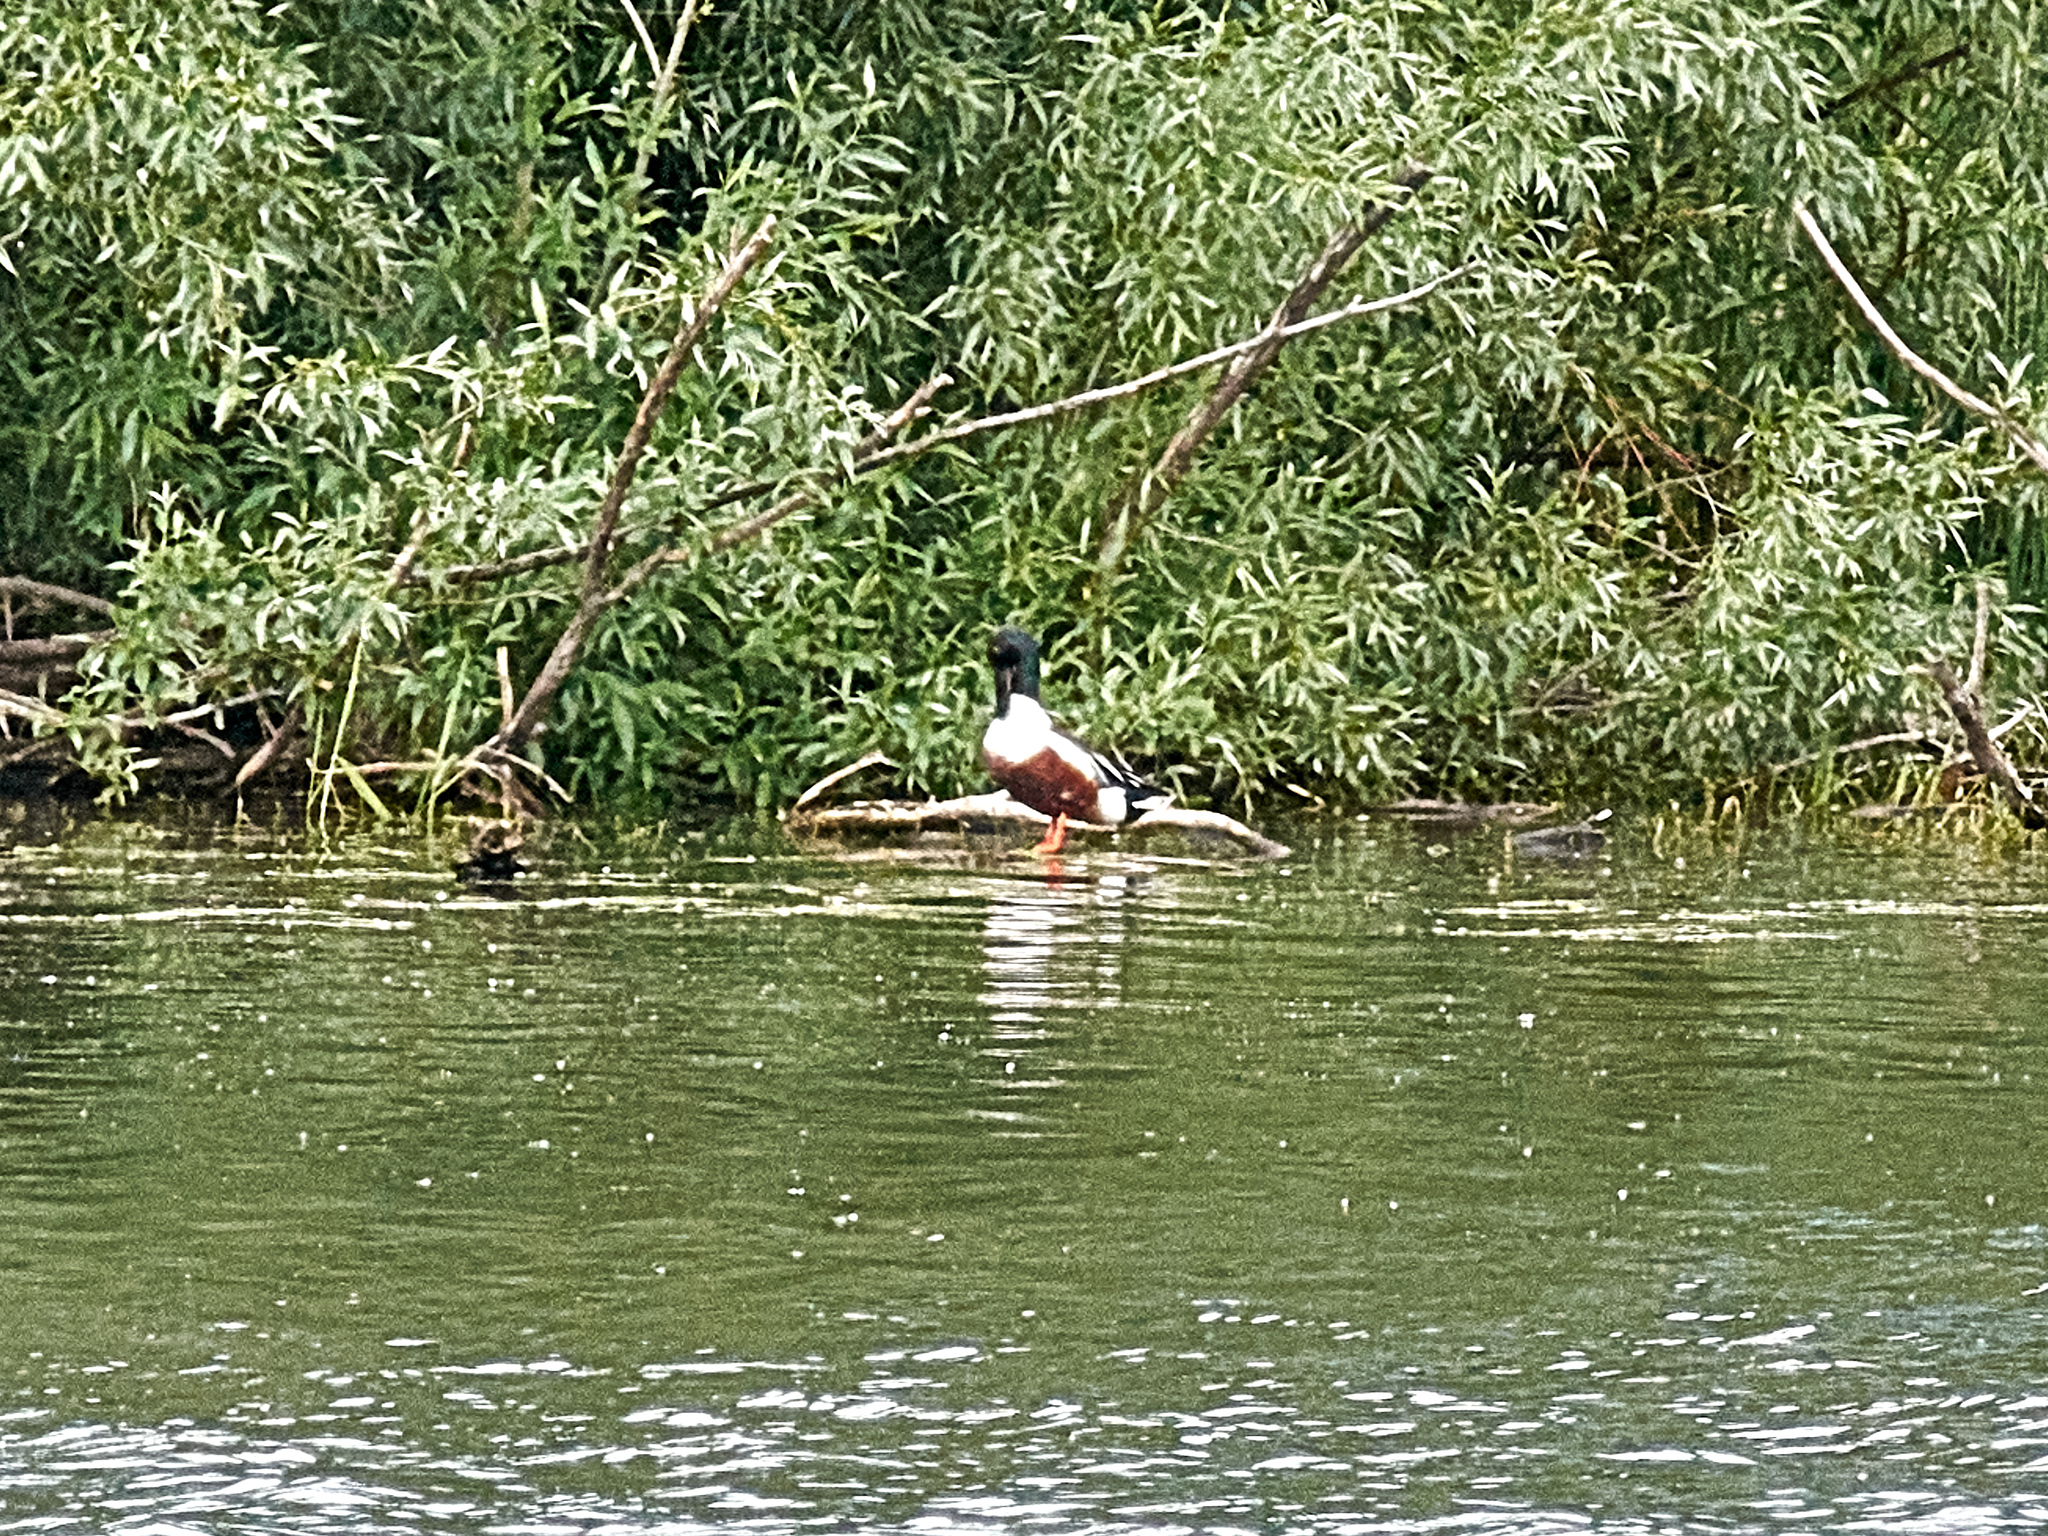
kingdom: Animalia
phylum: Chordata
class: Aves
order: Anseriformes
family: Anatidae
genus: Spatula
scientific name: Spatula clypeata
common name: Northern shoveler
